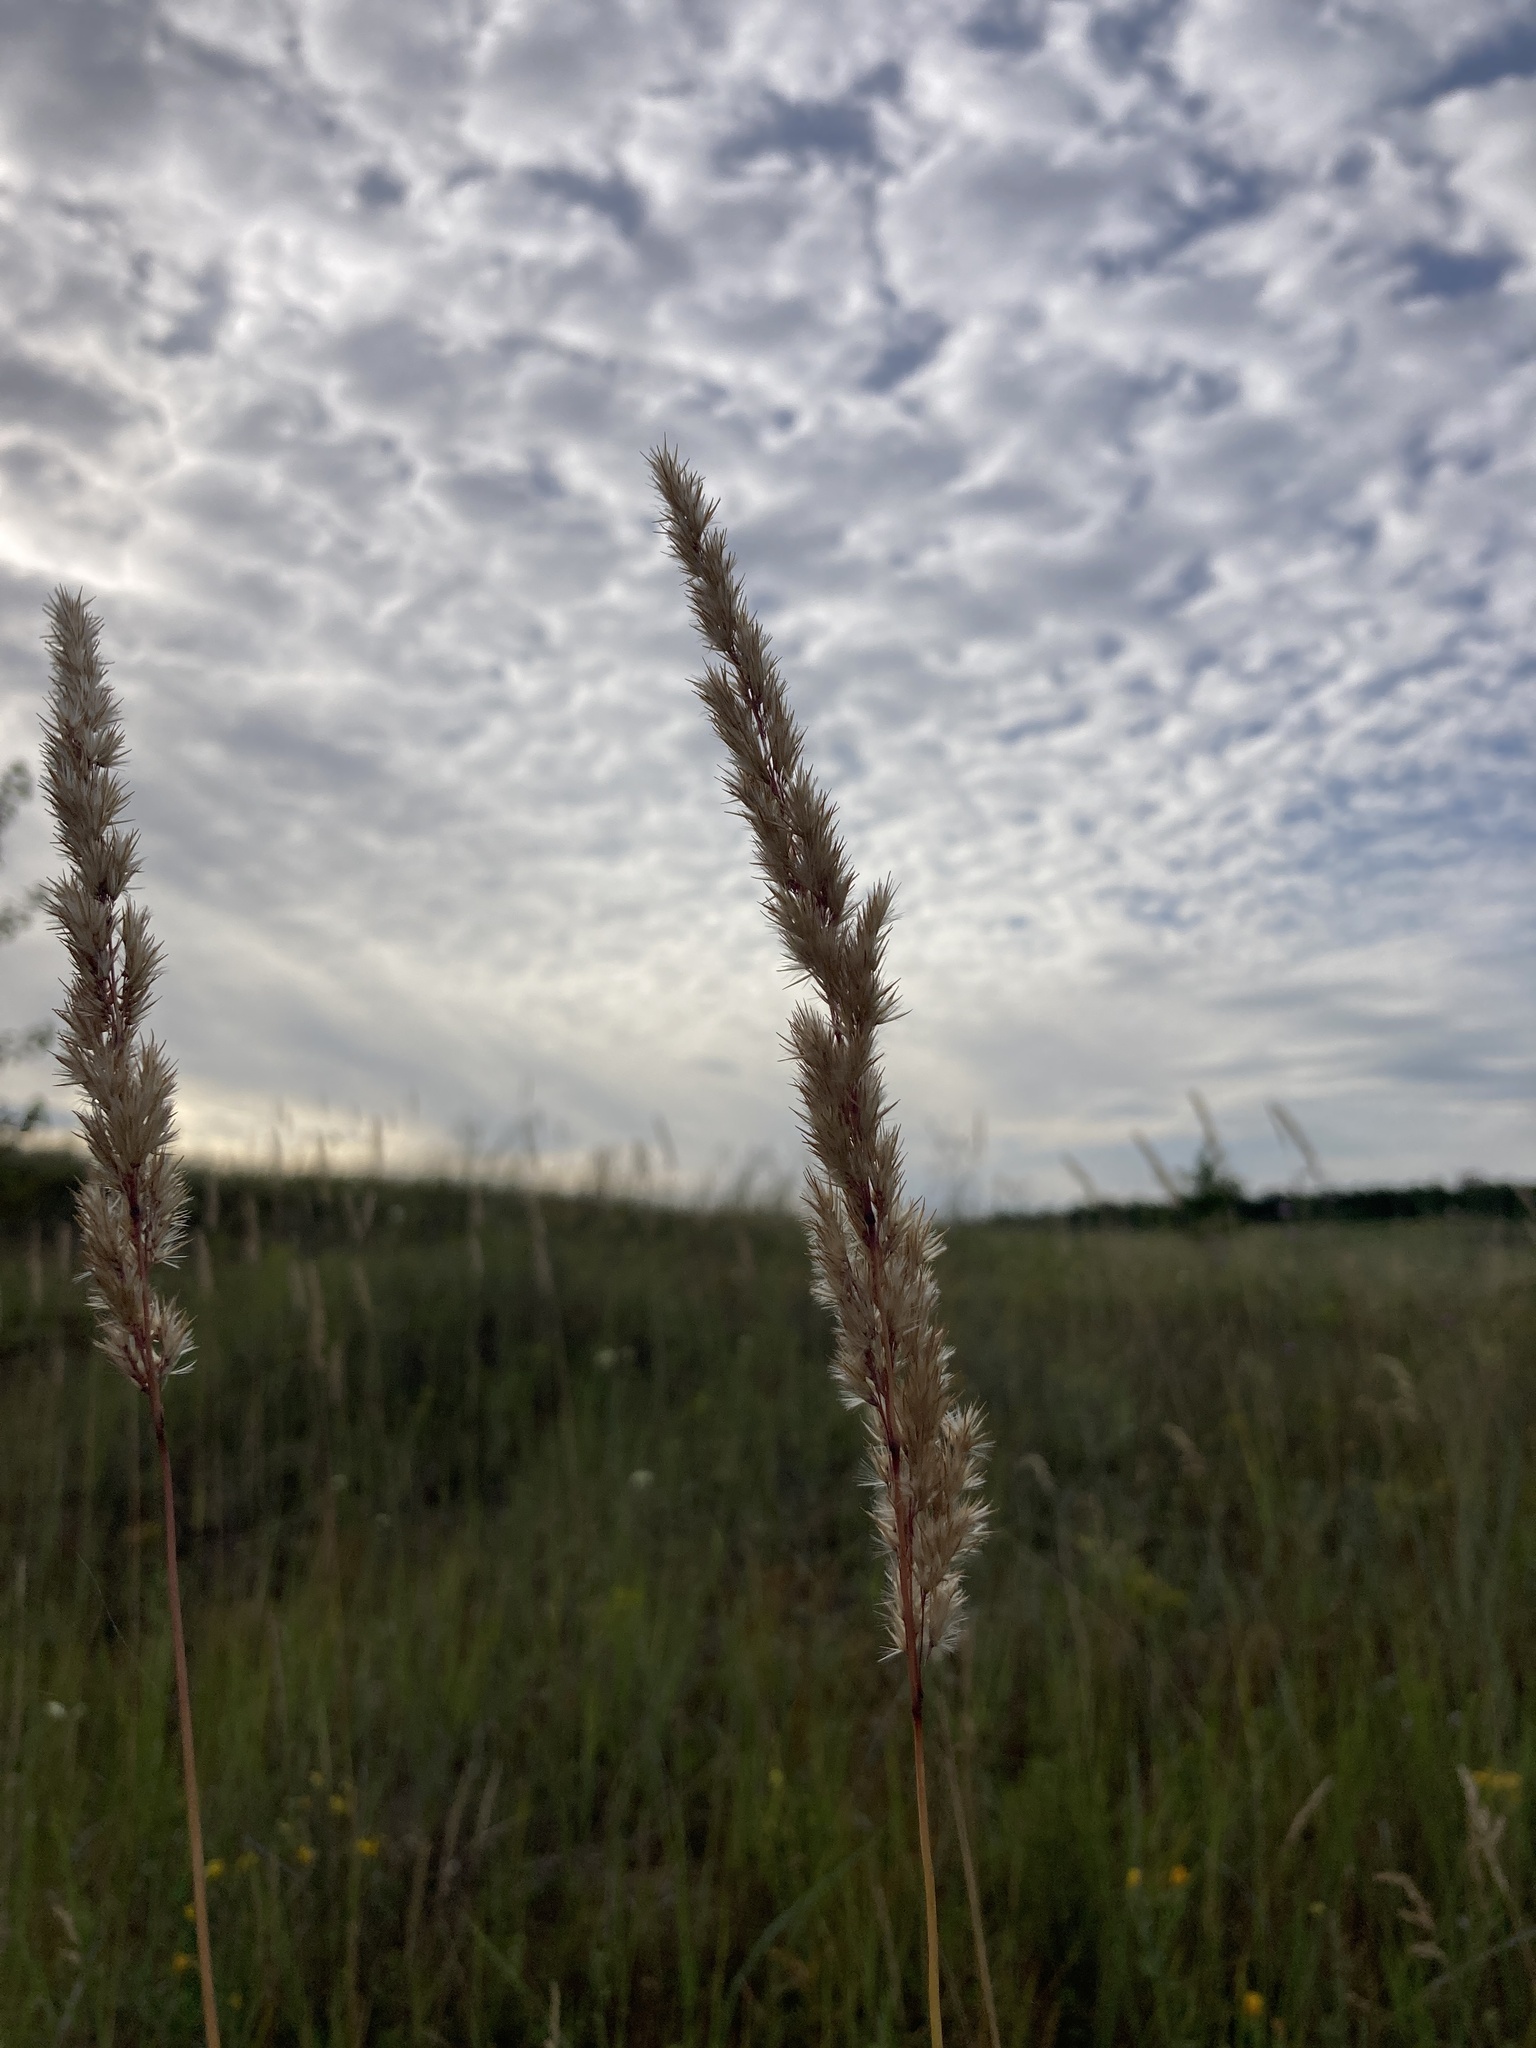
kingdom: Plantae
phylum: Tracheophyta
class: Liliopsida
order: Poales
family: Poaceae
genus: Calamagrostis
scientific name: Calamagrostis epigejos
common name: Wood small-reed
